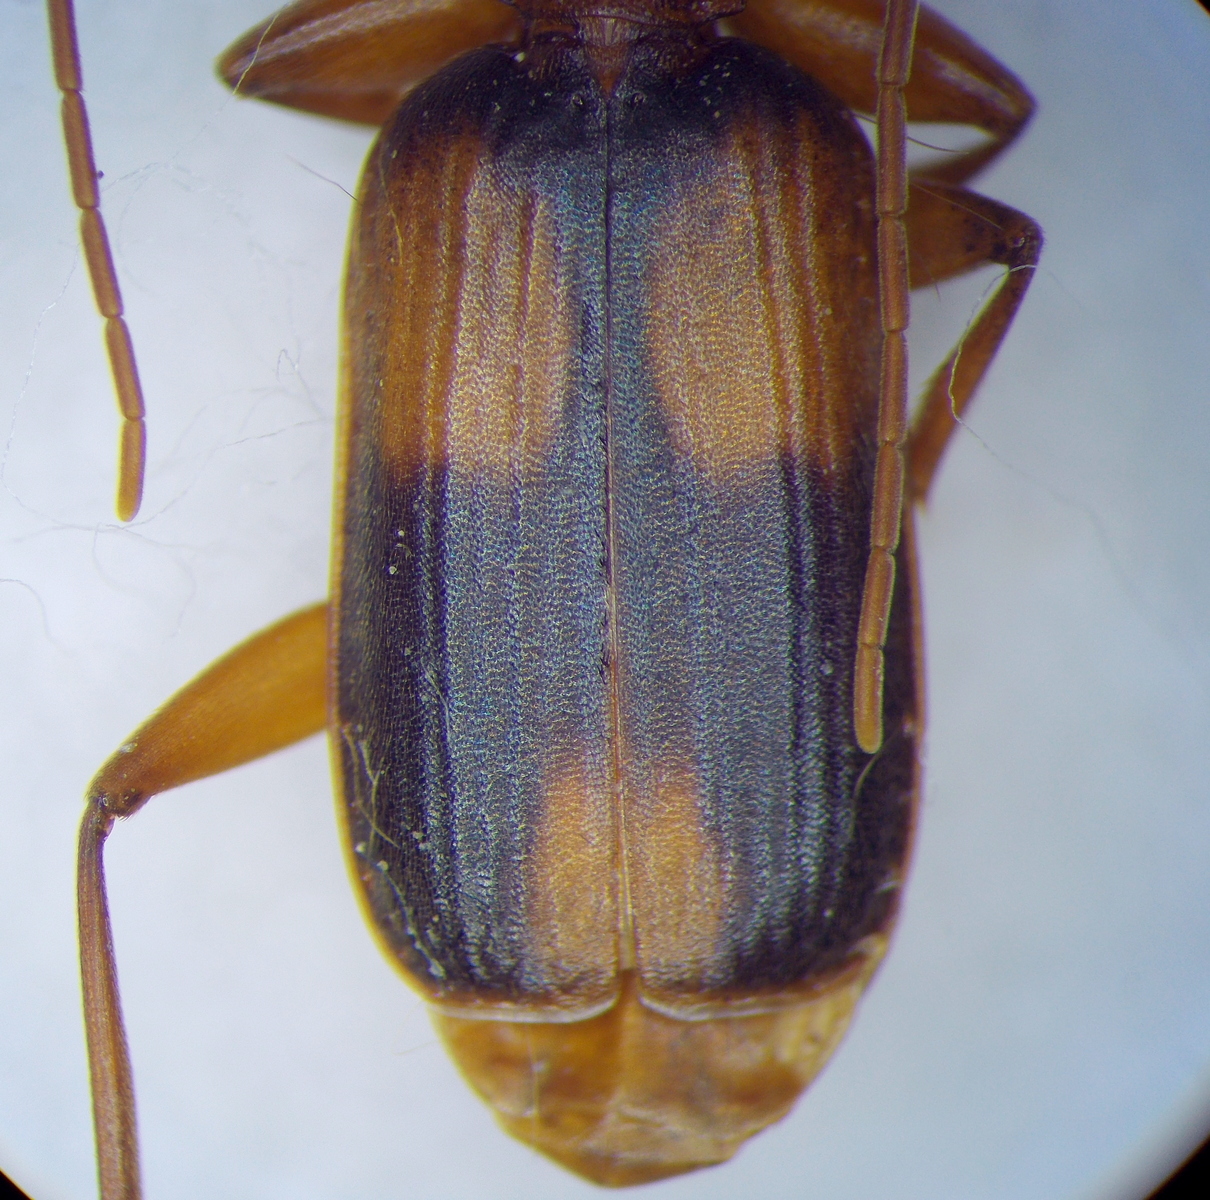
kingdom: Animalia
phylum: Arthropoda
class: Insecta
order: Coleoptera
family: Carabidae
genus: Zuphium
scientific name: Zuphium olens
